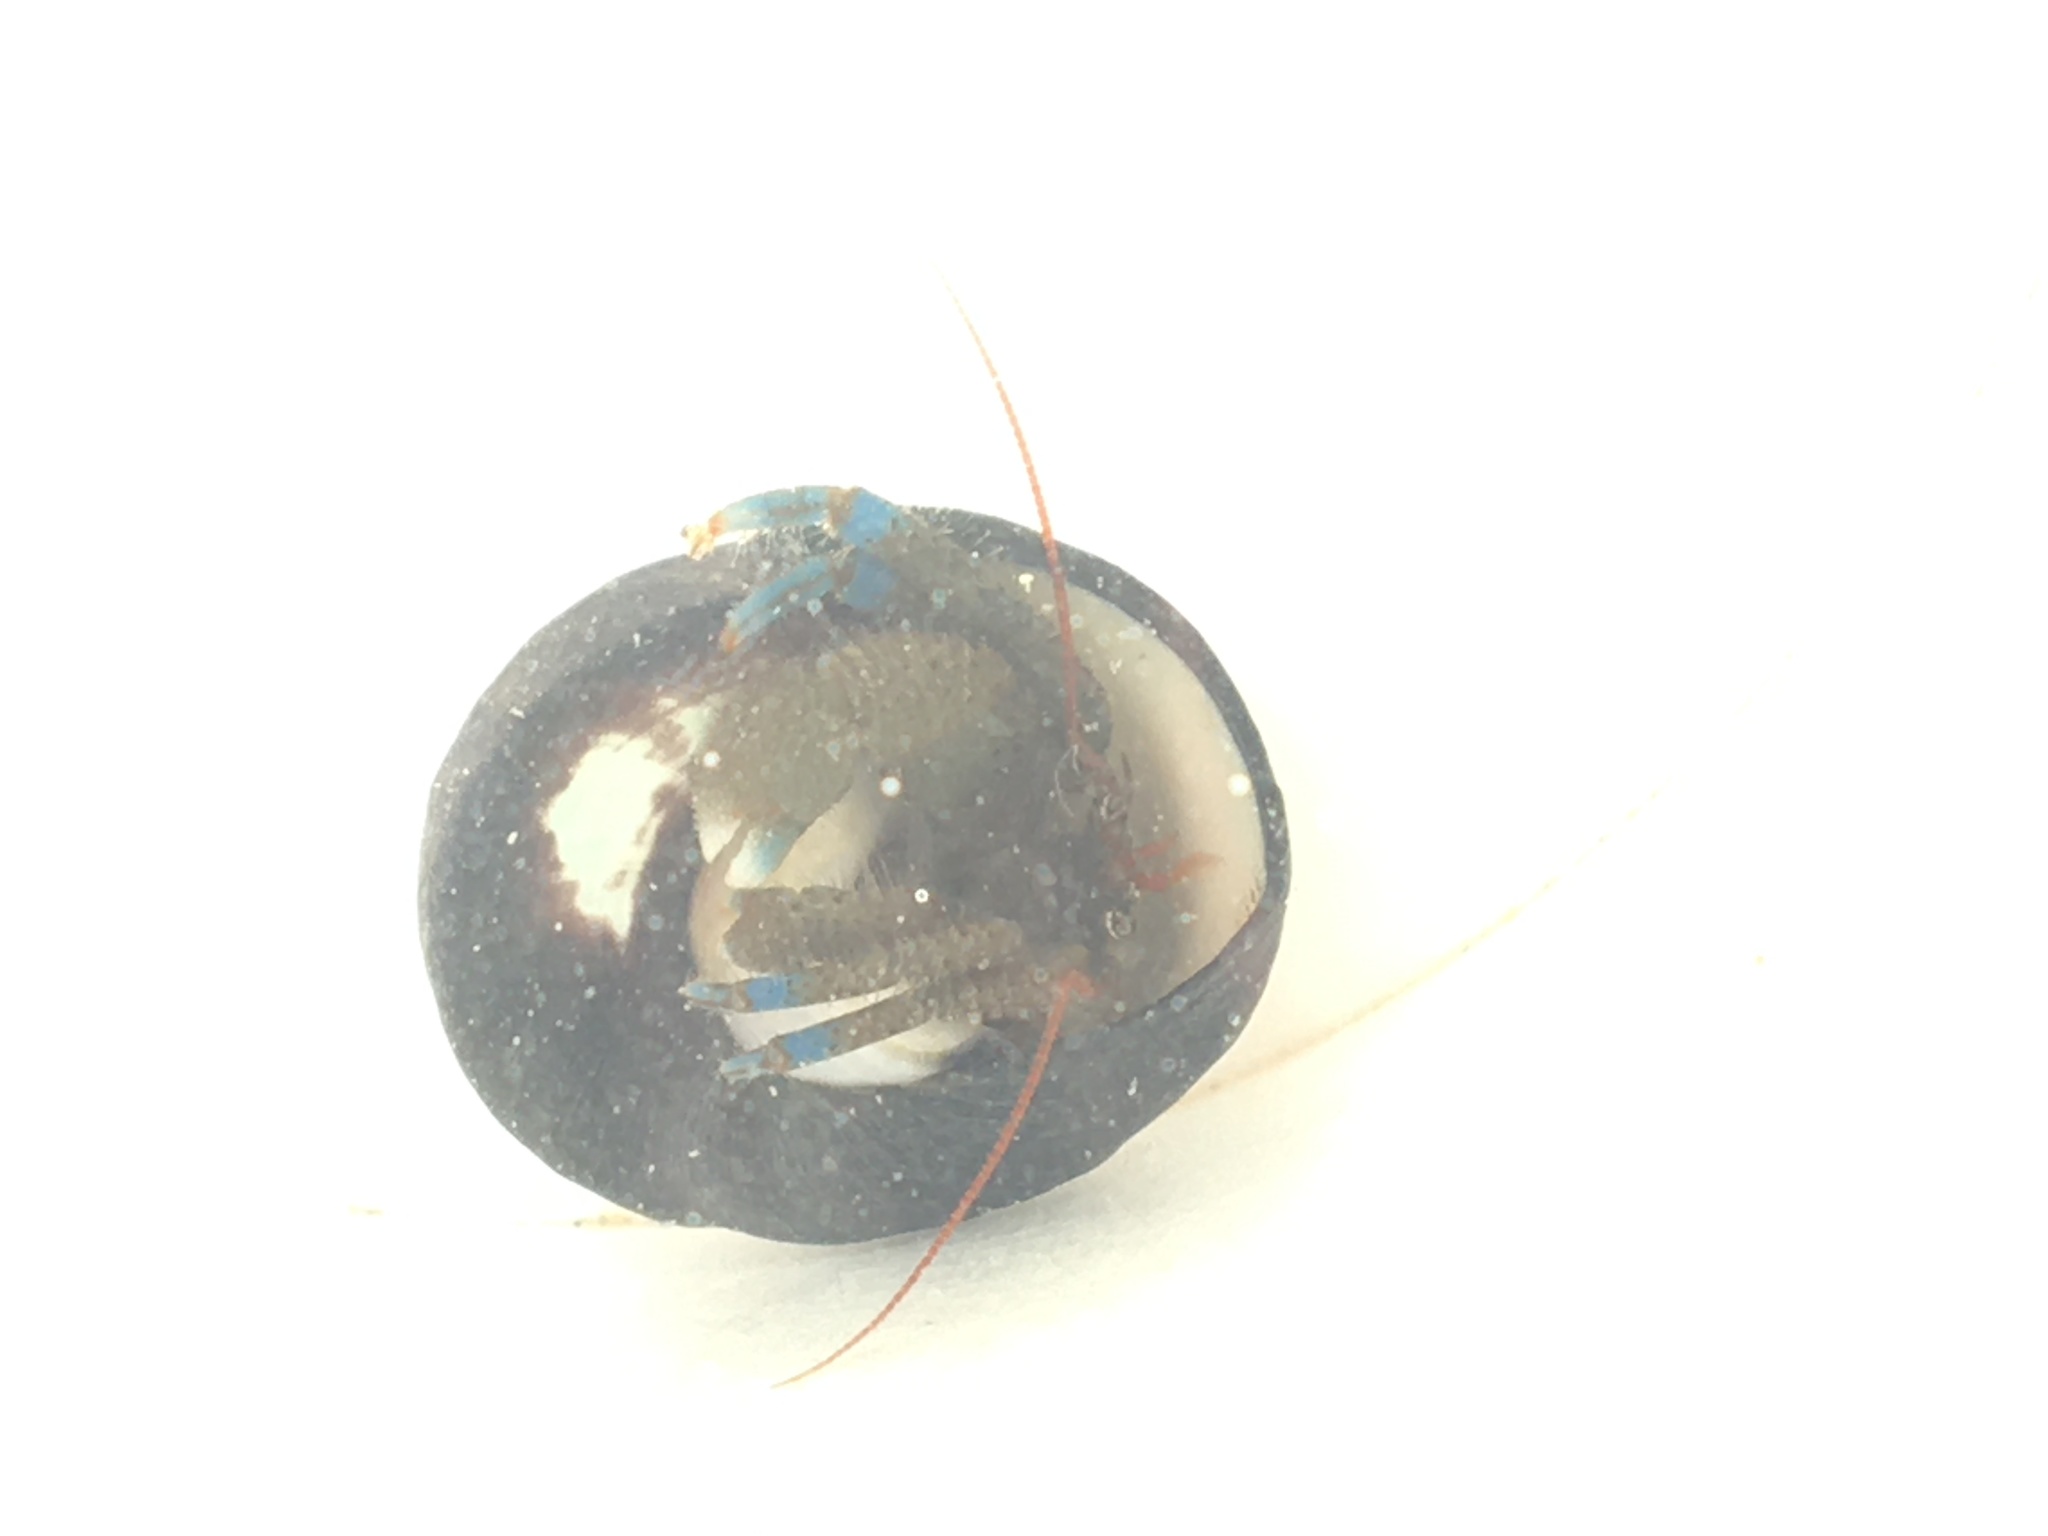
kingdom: Animalia
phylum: Arthropoda
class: Malacostraca
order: Decapoda
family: Paguridae
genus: Pagurus
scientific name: Pagurus samuelis
